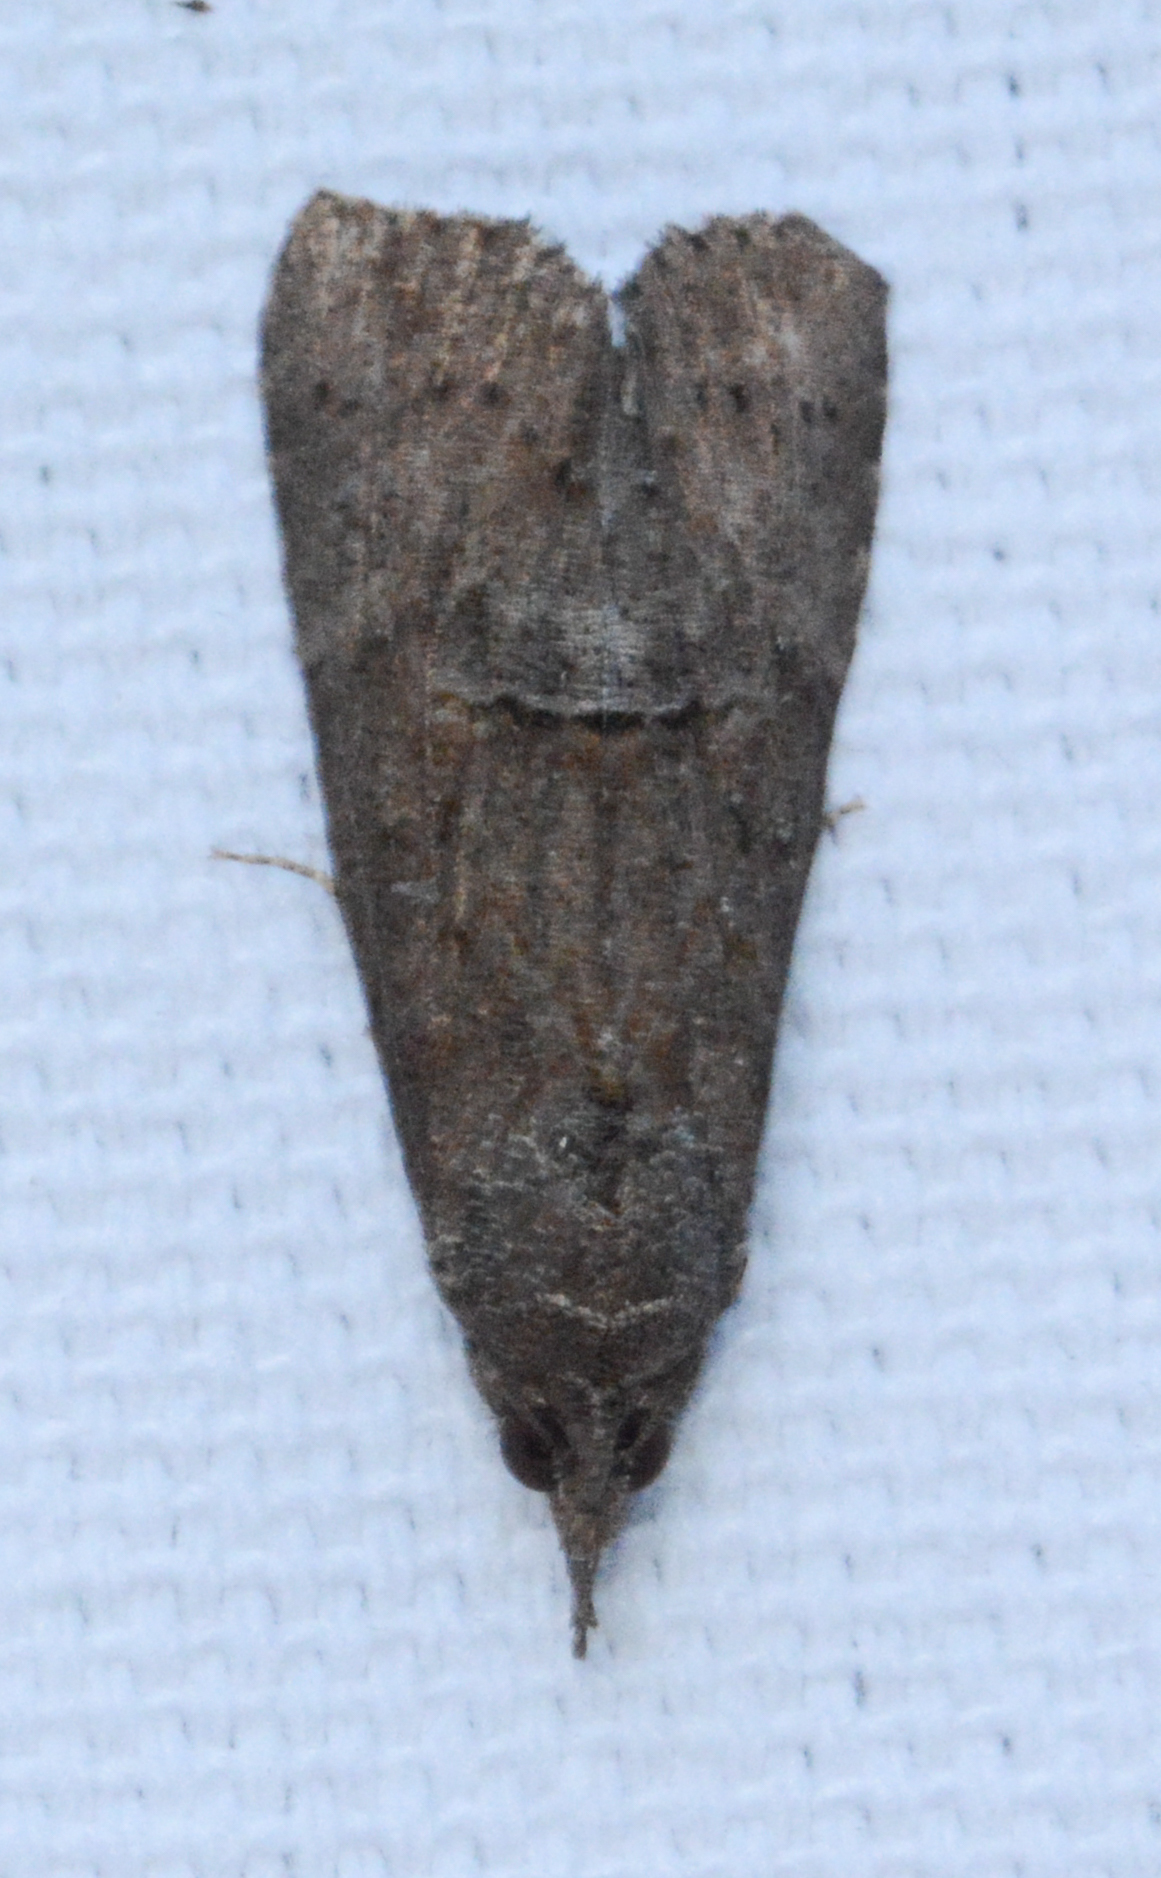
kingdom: Animalia
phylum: Arthropoda
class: Insecta
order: Lepidoptera
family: Erebidae
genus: Hypena
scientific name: Hypena scabra
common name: Green cloverworm
